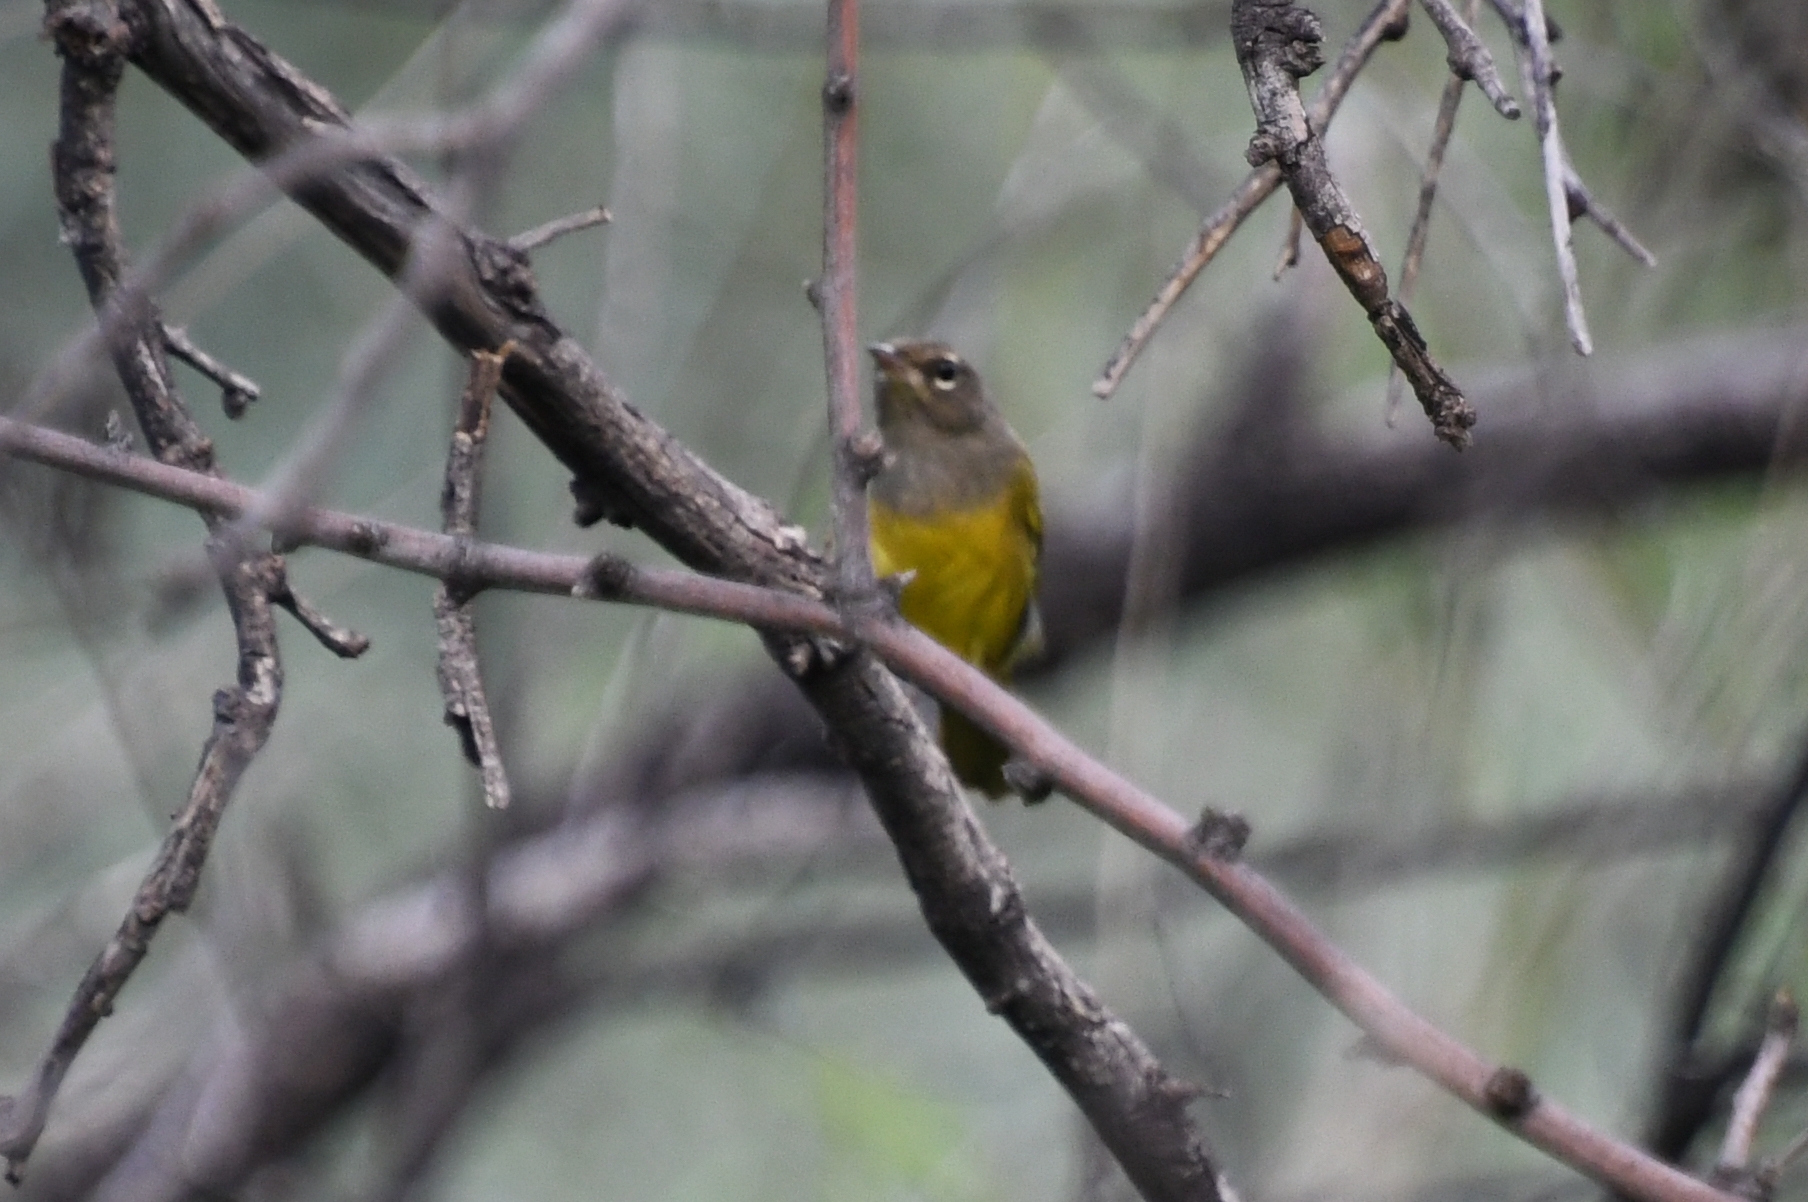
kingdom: Animalia
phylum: Chordata
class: Aves
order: Passeriformes
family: Parulidae
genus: Geothlypis
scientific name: Geothlypis tolmiei
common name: Macgillivray's warbler
